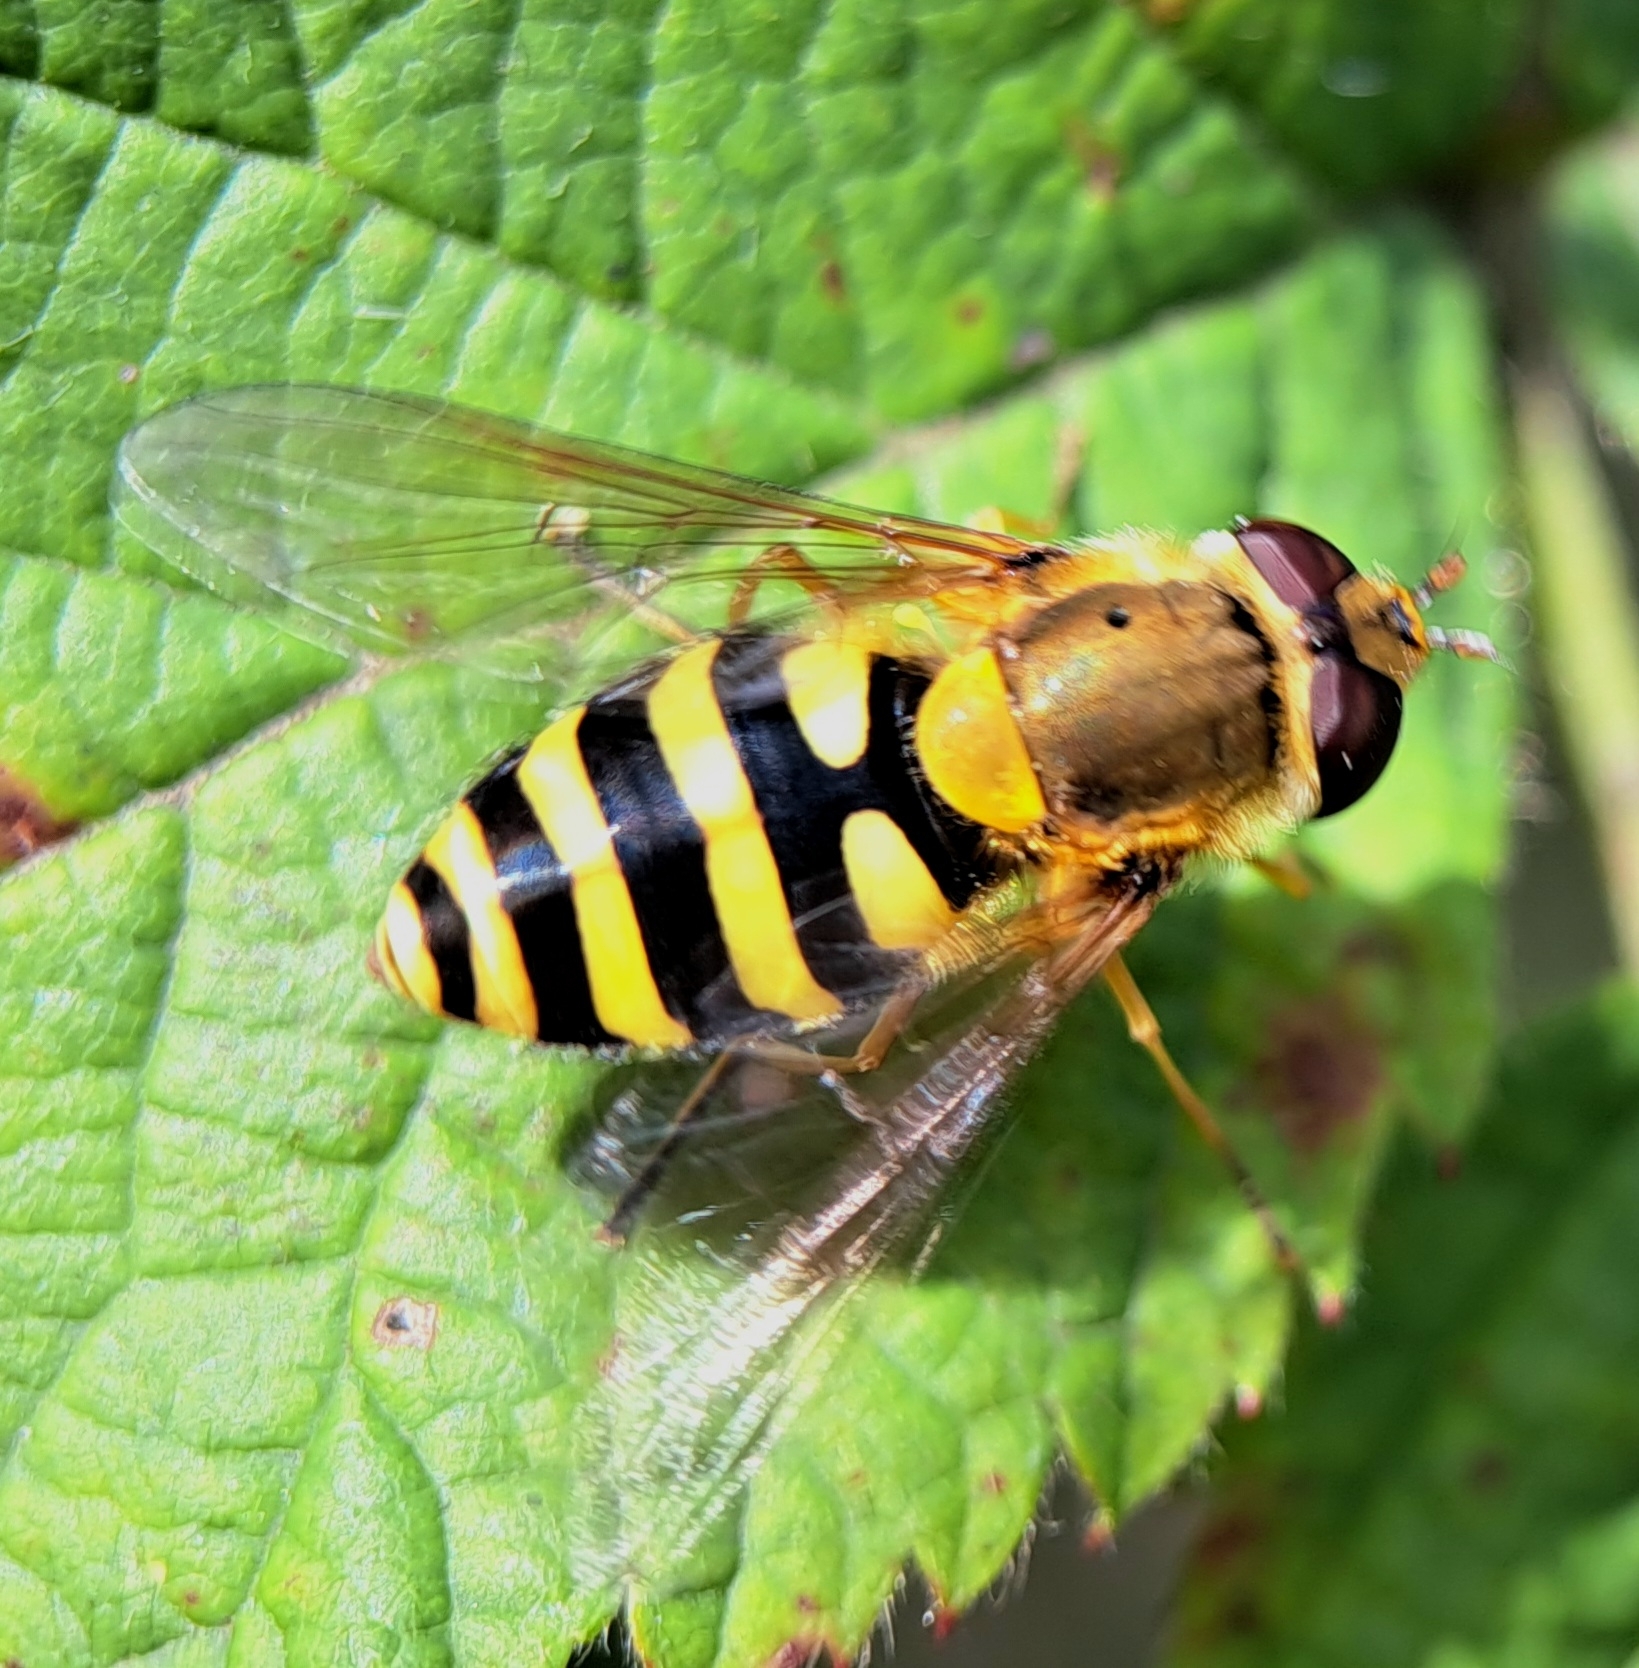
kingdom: Animalia
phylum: Arthropoda
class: Insecta
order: Diptera
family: Syrphidae
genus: Syrphus
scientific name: Syrphus ribesii
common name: Common flower fly
